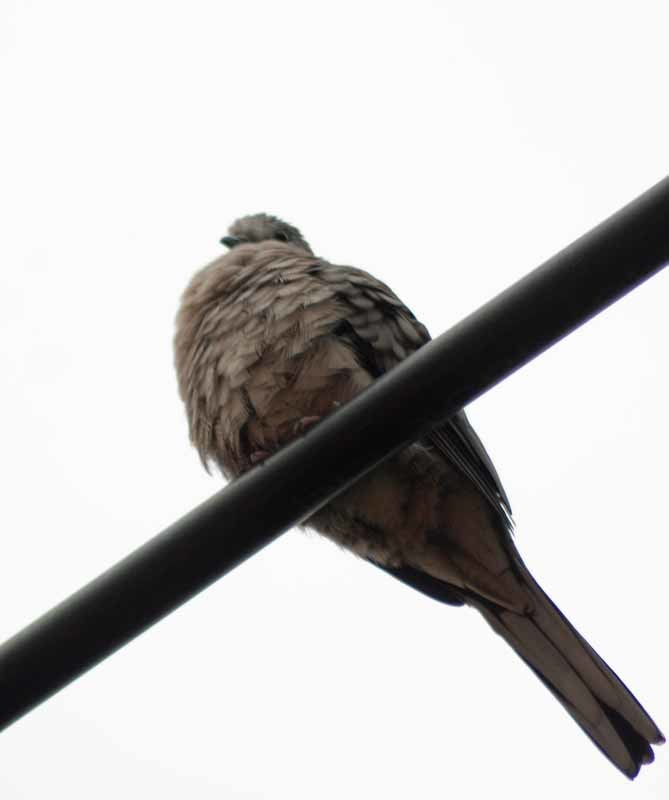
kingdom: Animalia
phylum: Chordata
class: Aves
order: Columbiformes
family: Columbidae
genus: Columbina
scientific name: Columbina inca
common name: Inca dove
